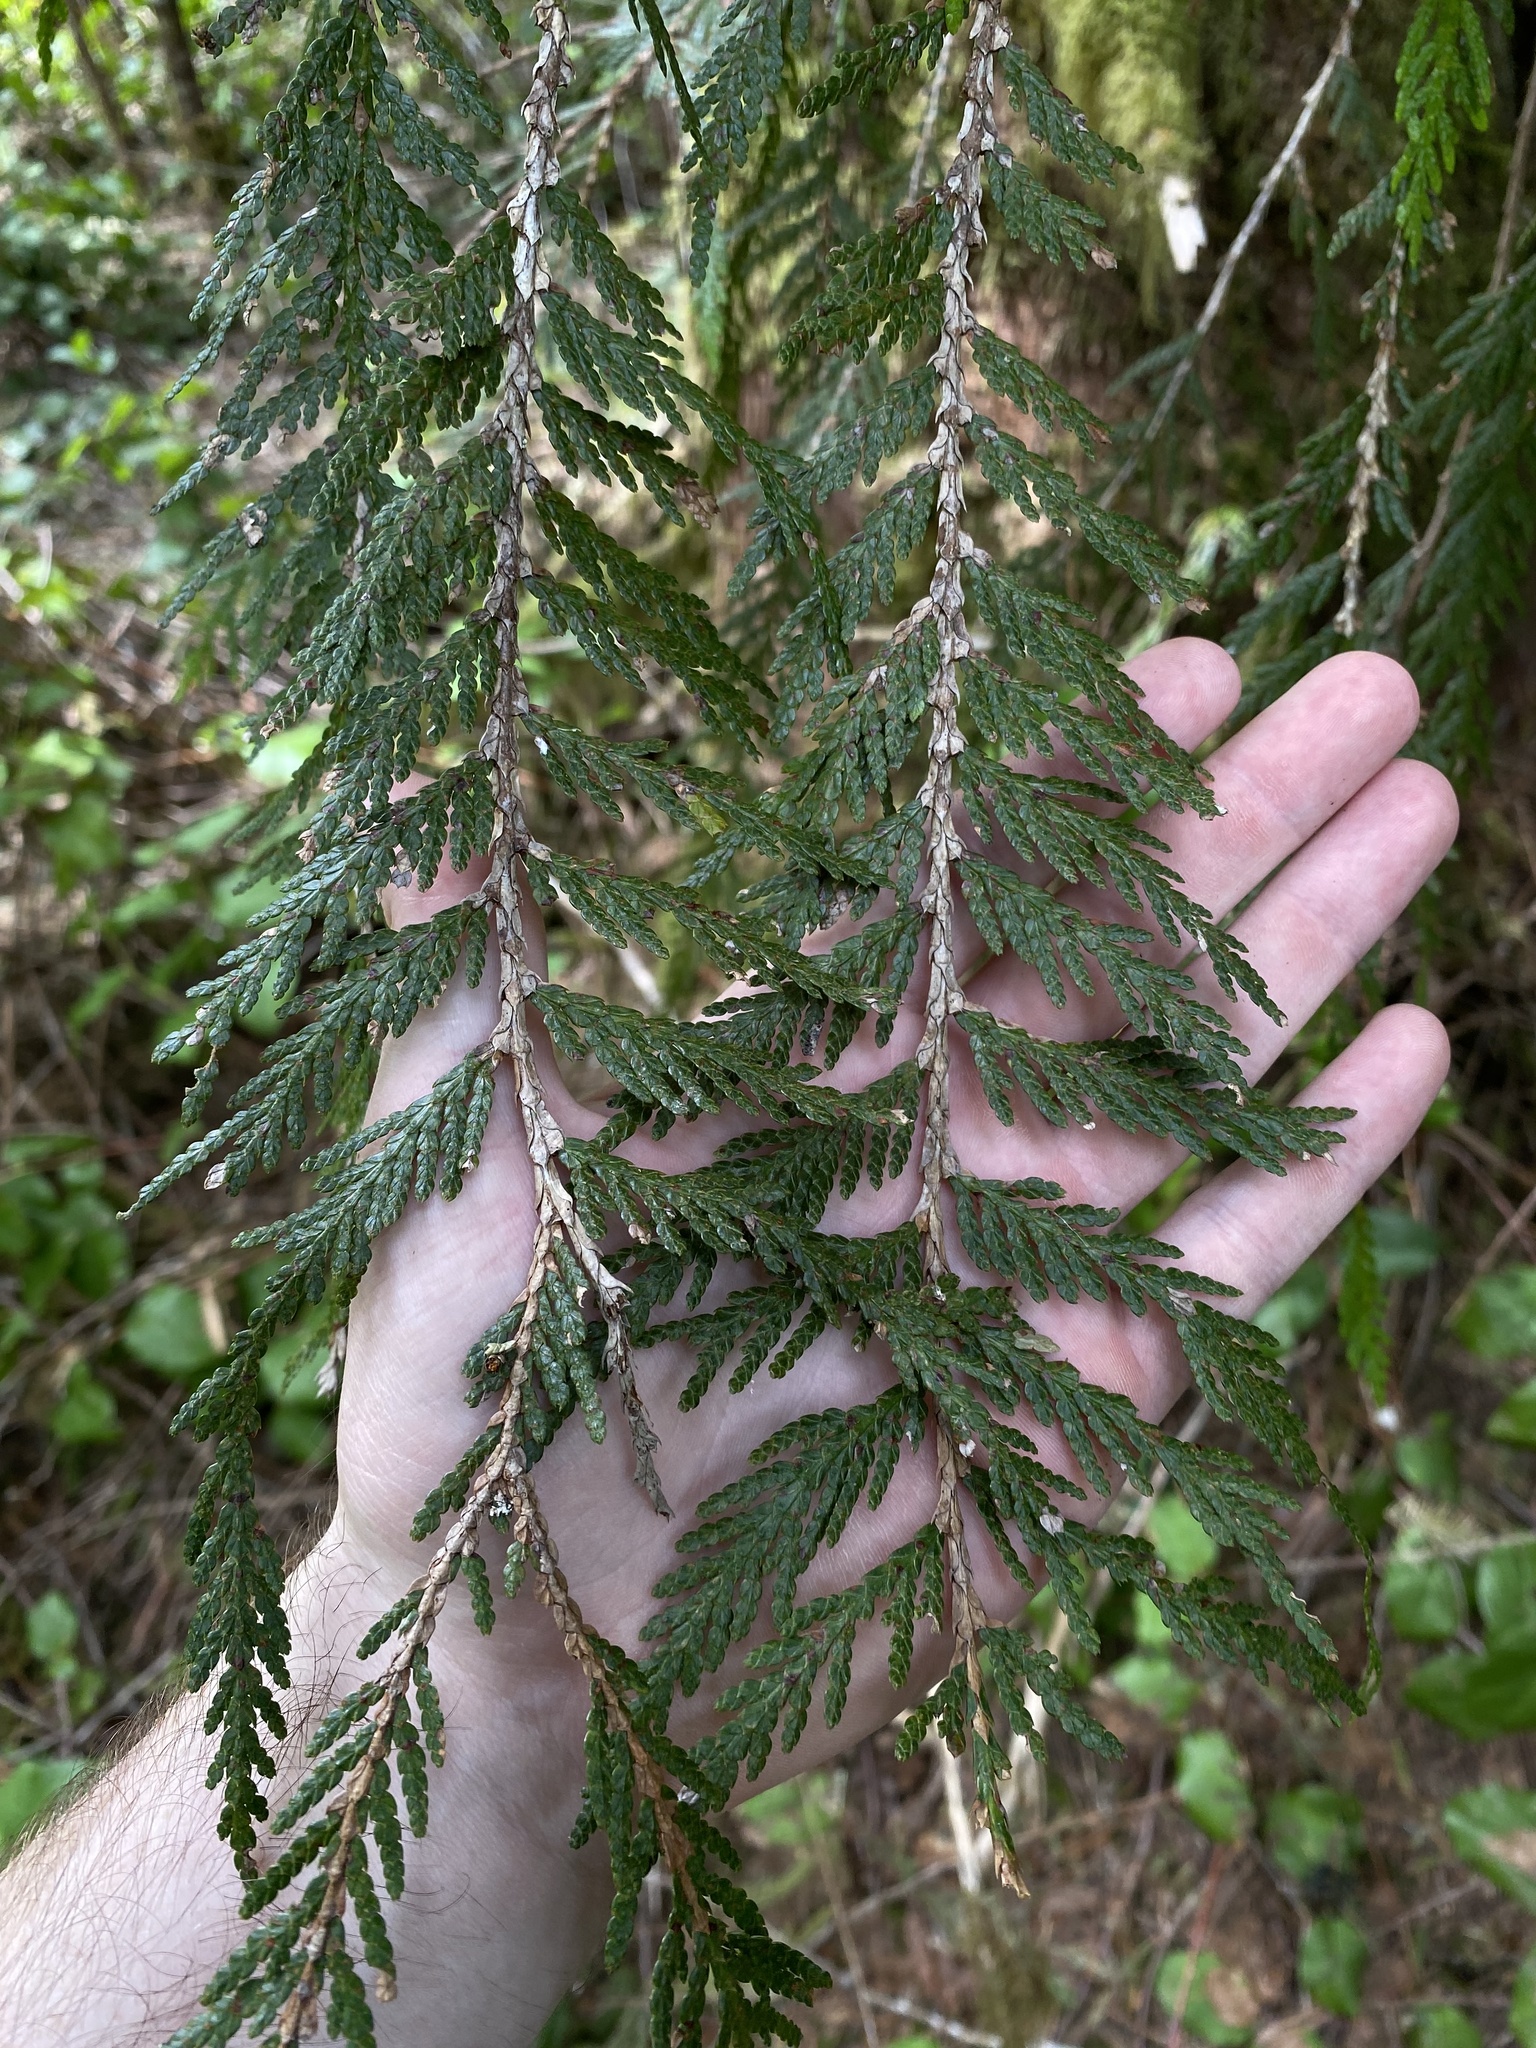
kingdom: Plantae
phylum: Tracheophyta
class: Pinopsida
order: Pinales
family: Cupressaceae
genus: Thuja
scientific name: Thuja plicata
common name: Western red-cedar
